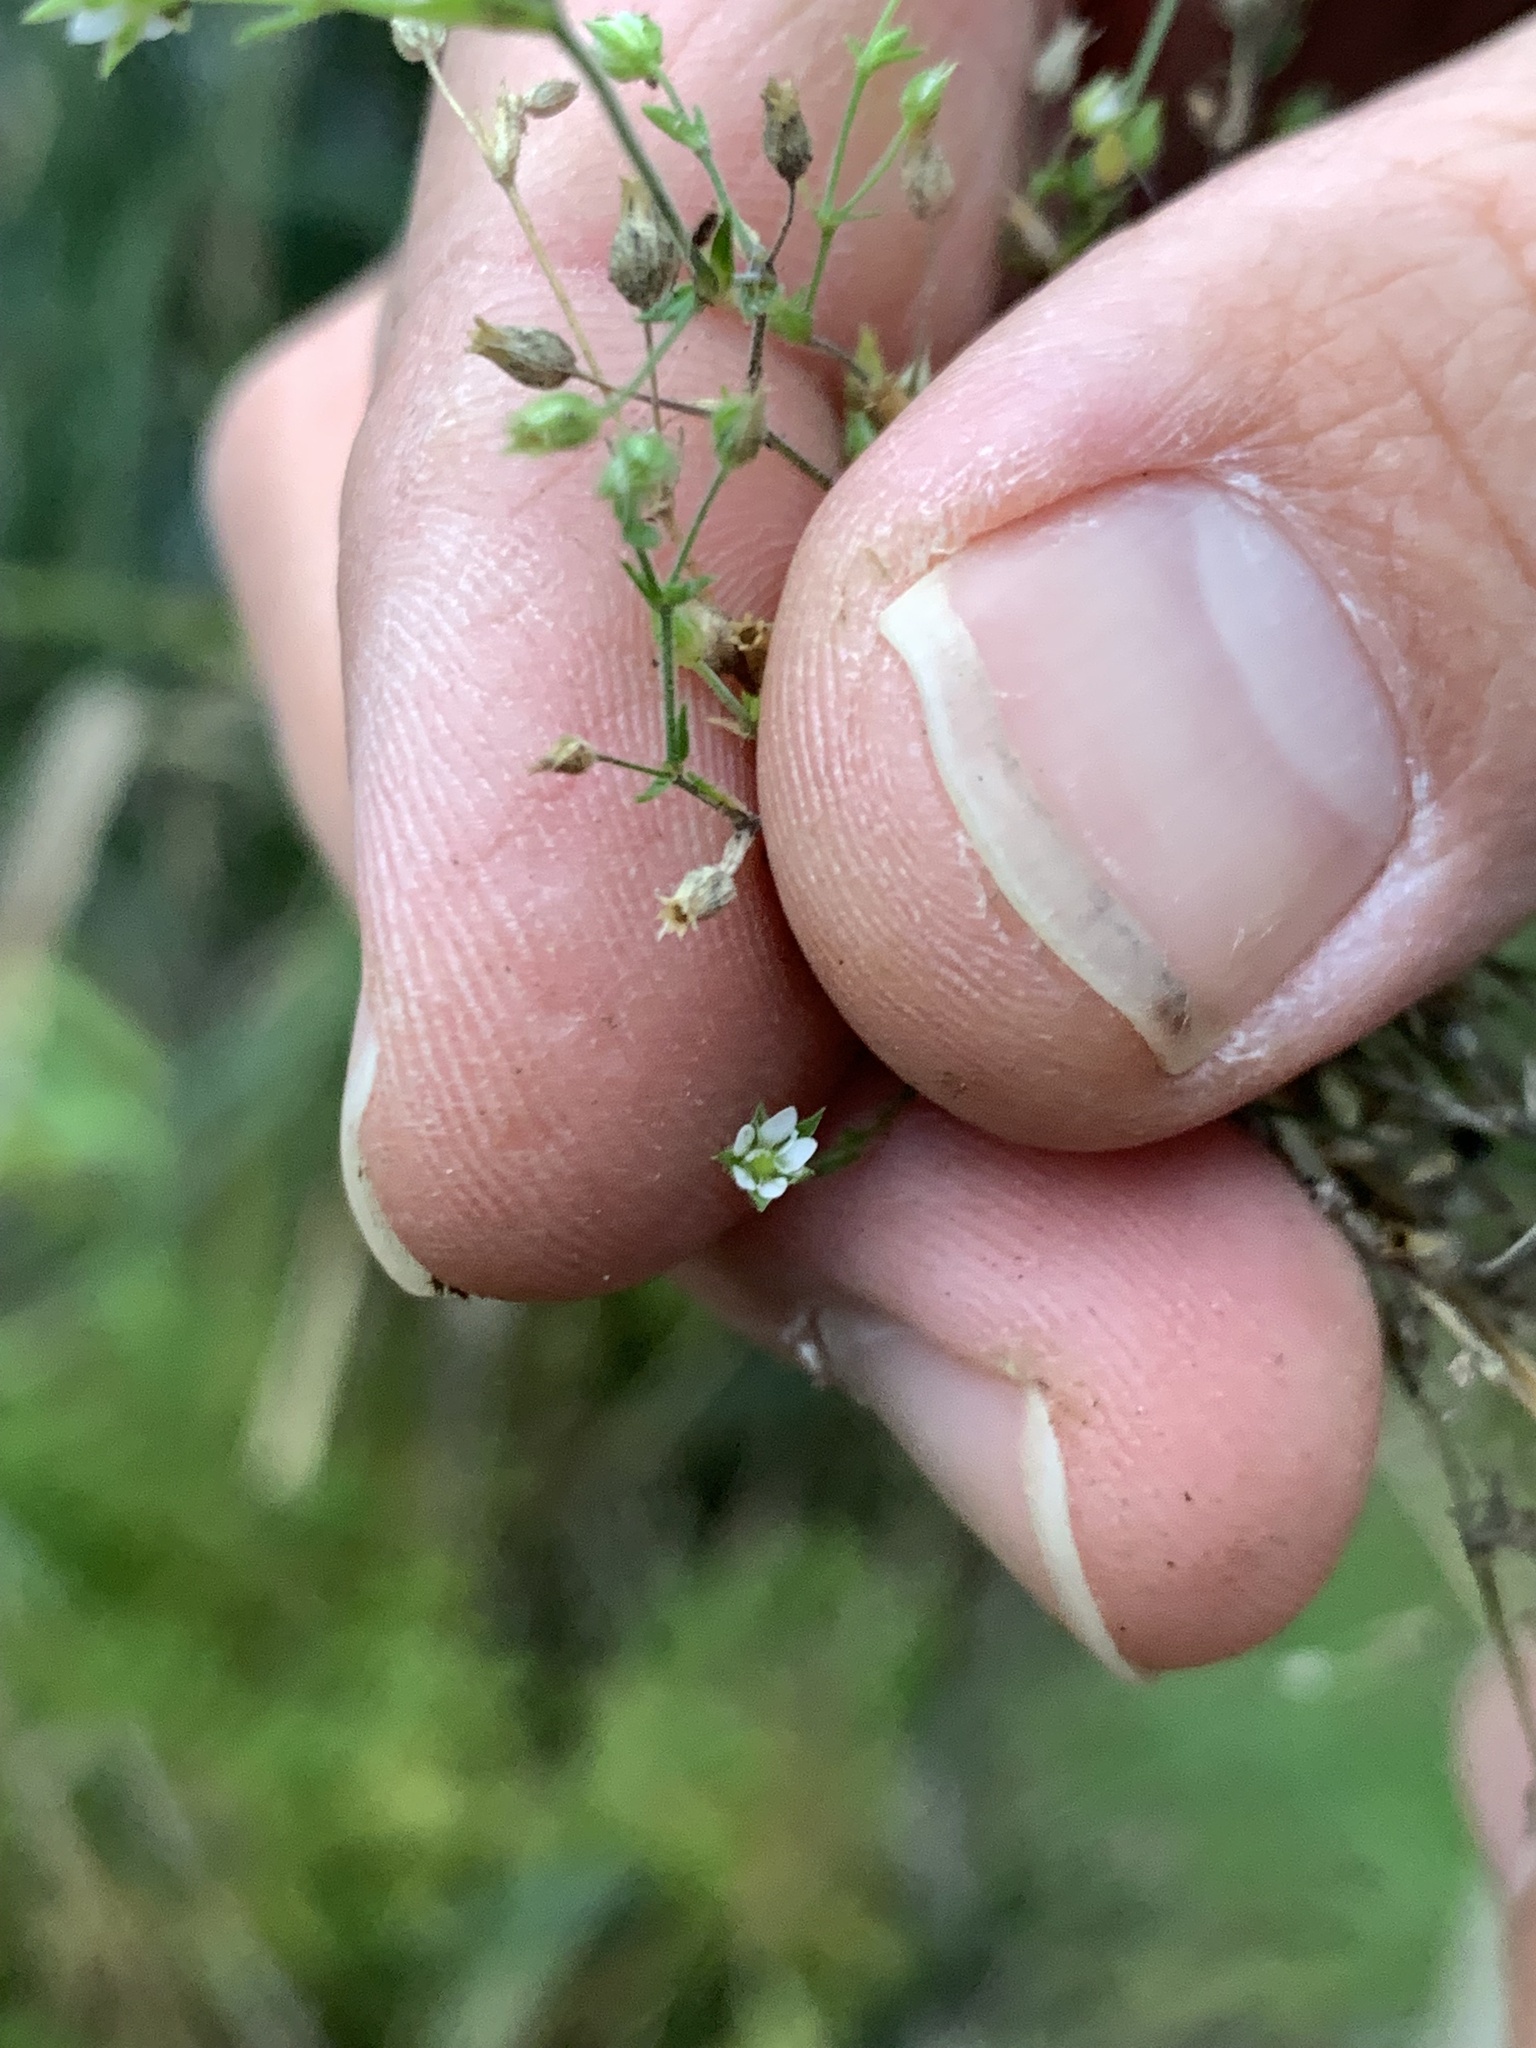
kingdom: Plantae
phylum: Tracheophyta
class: Magnoliopsida
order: Caryophyllales
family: Caryophyllaceae
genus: Arenaria
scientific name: Arenaria serpyllifolia
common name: Thyme-leaved sandwort
